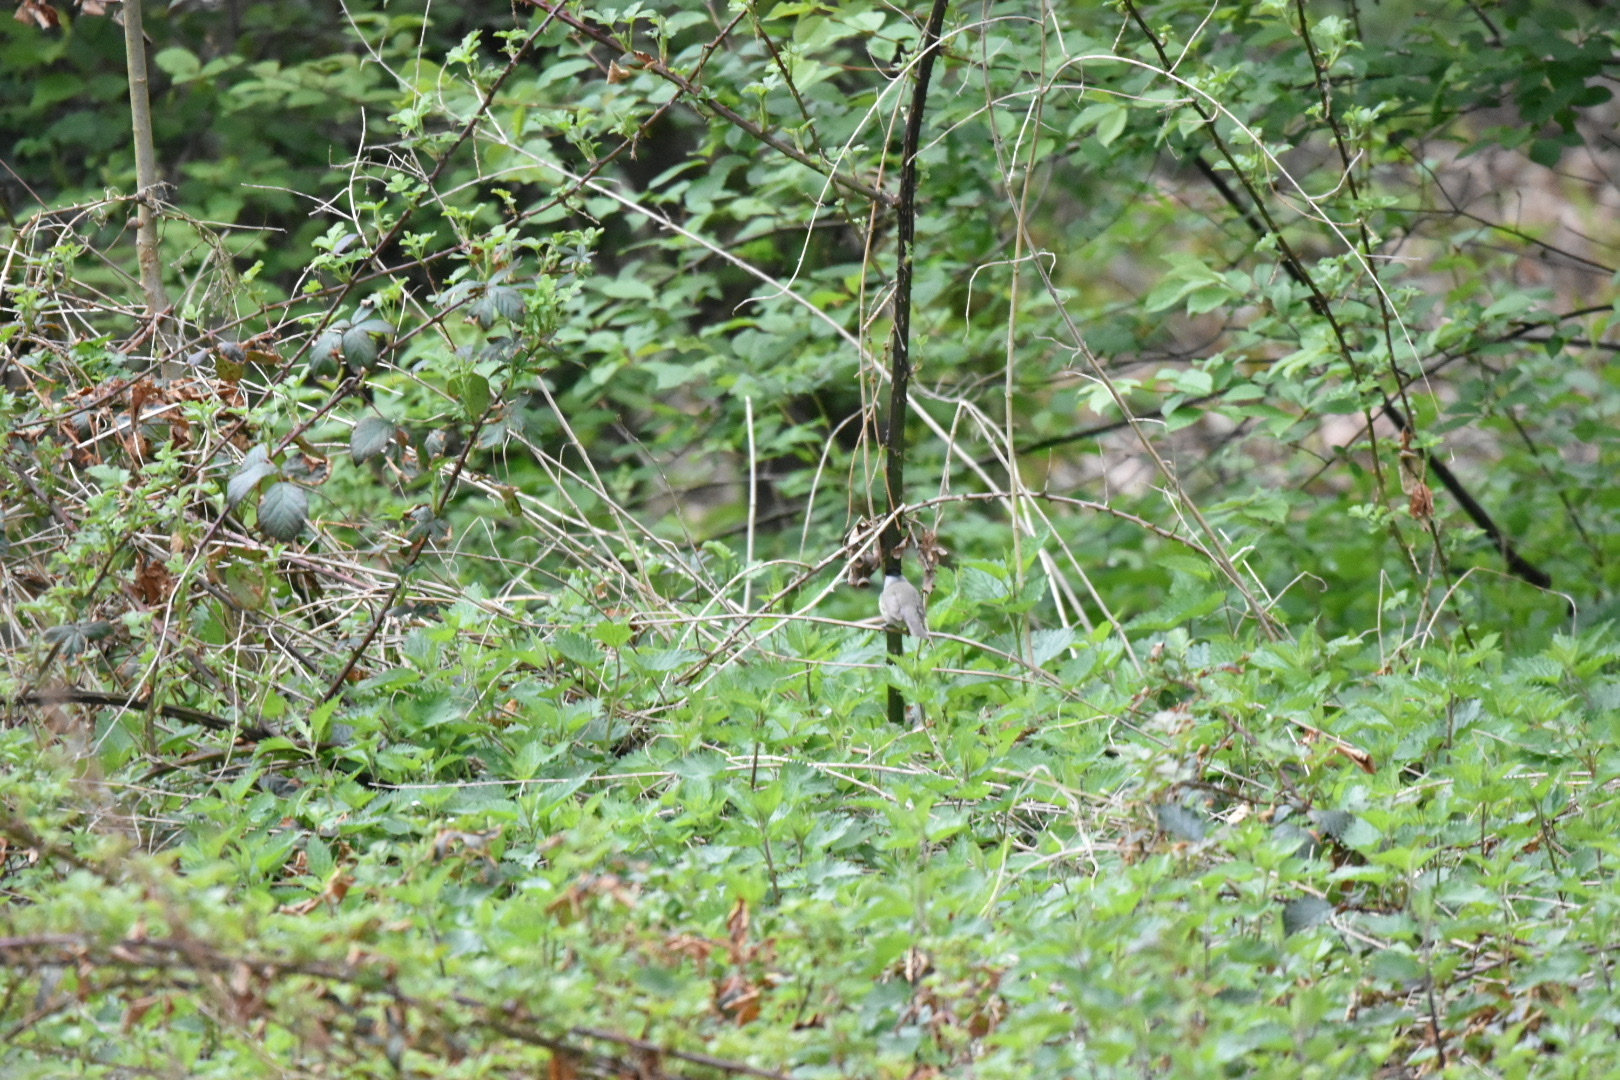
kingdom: Animalia
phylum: Chordata
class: Aves
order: Passeriformes
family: Sylviidae
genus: Sylvia
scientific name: Sylvia atricapilla
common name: Eurasian blackcap
